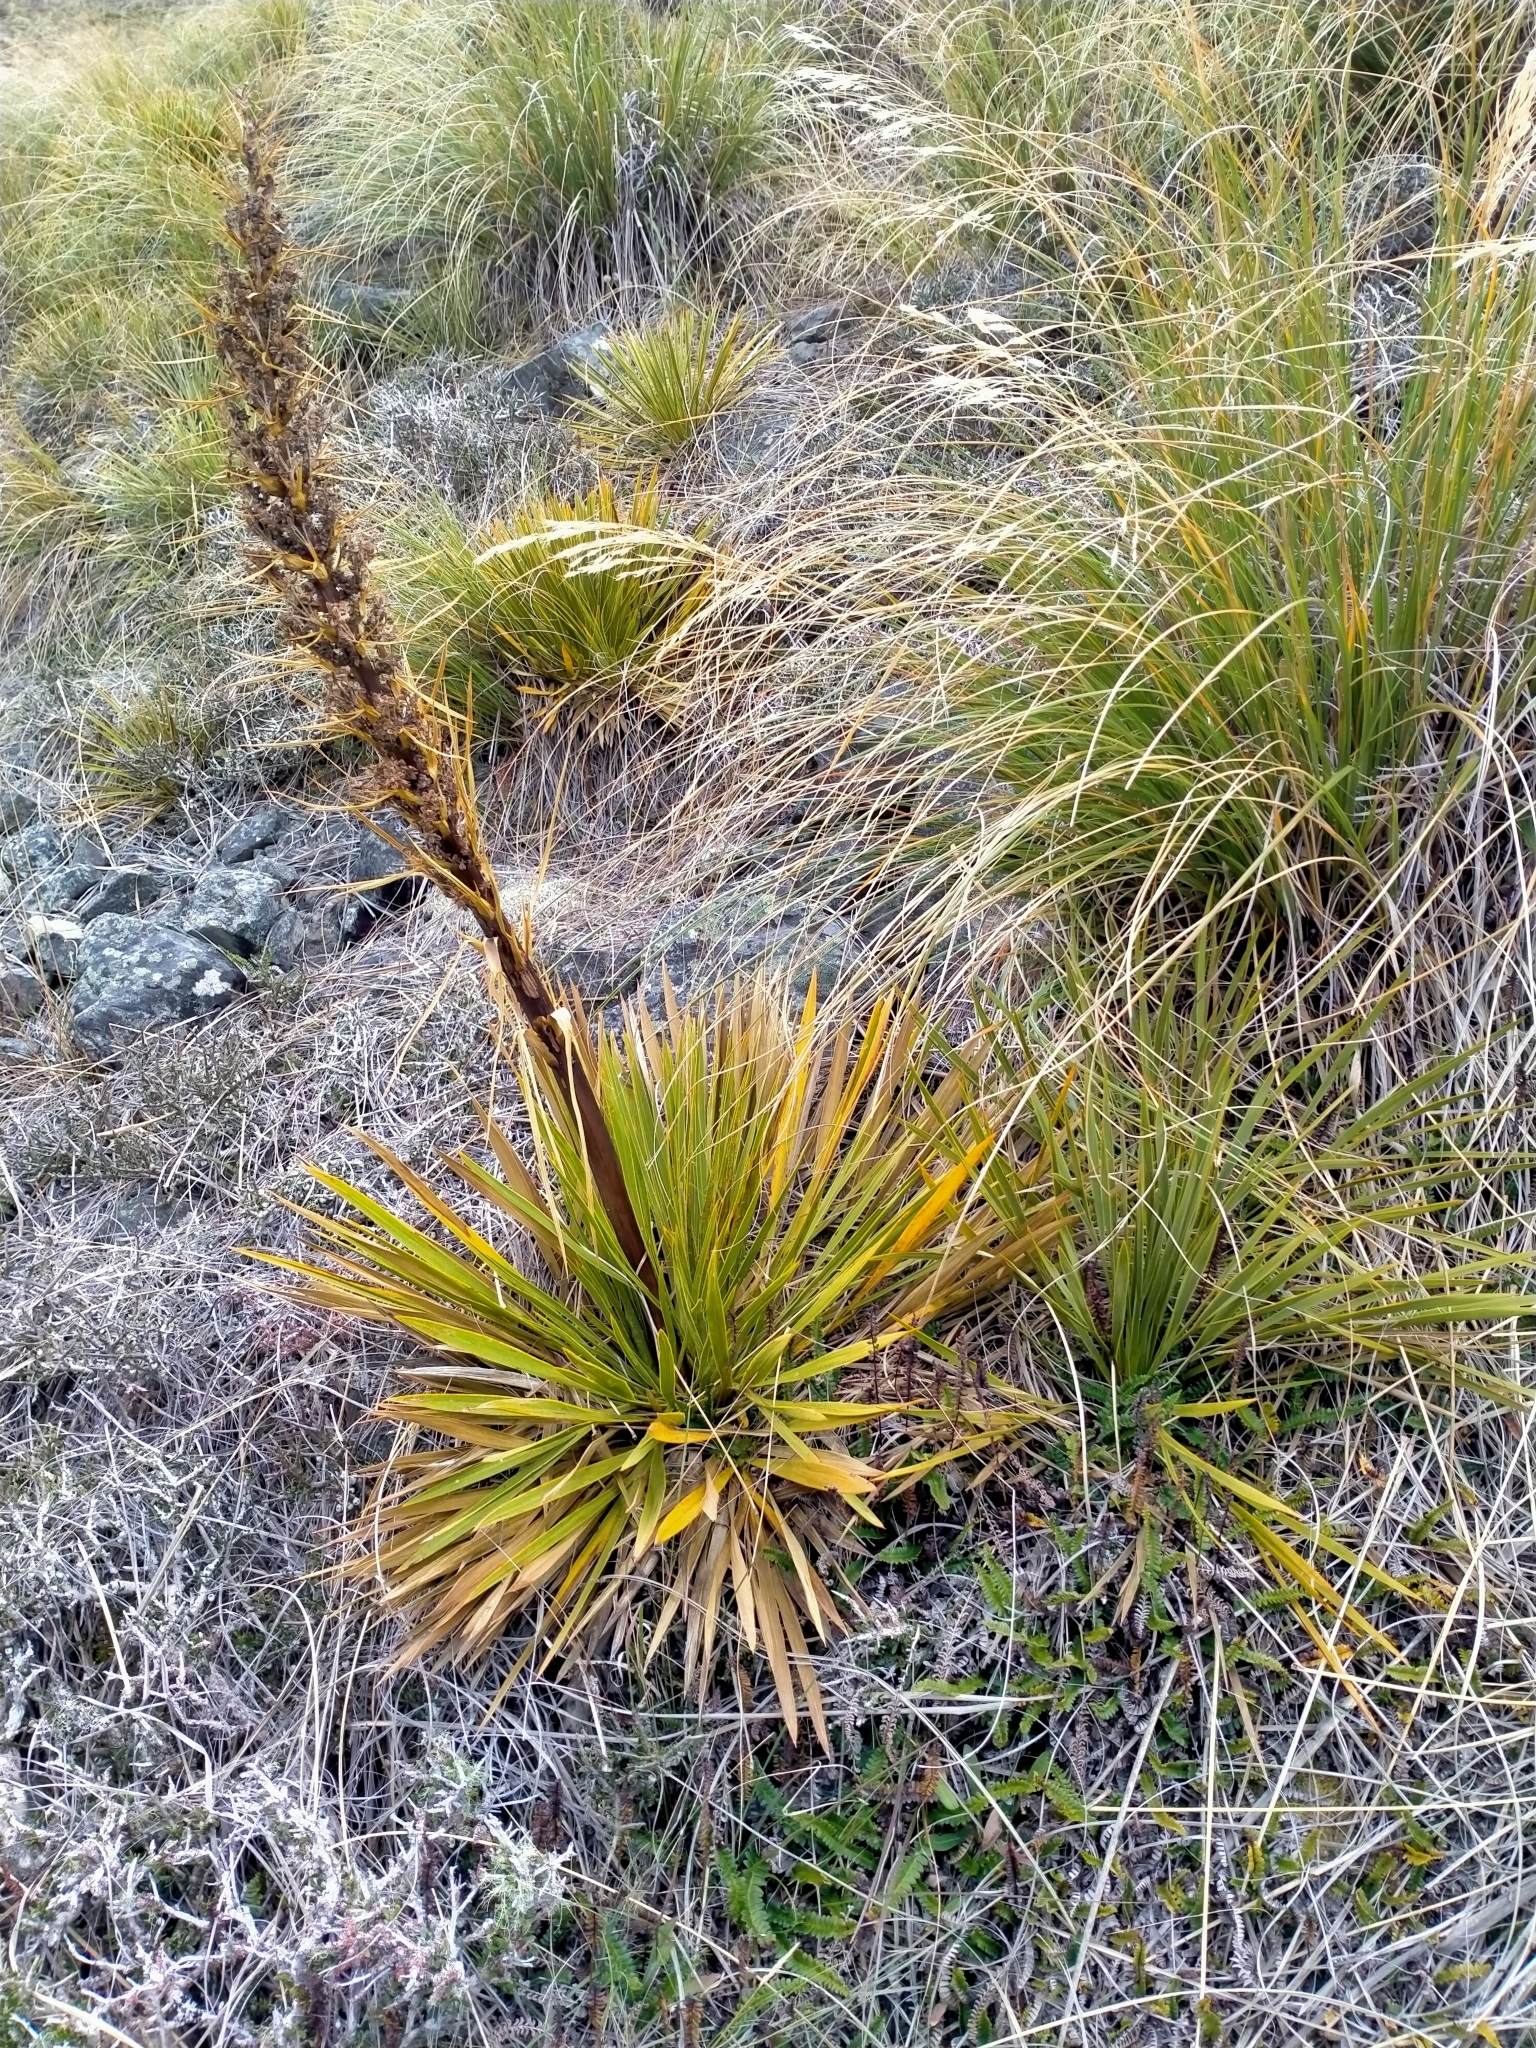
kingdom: Plantae
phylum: Tracheophyta
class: Magnoliopsida
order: Apiales
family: Apiaceae
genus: Aciphylla
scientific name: Aciphylla aurea
